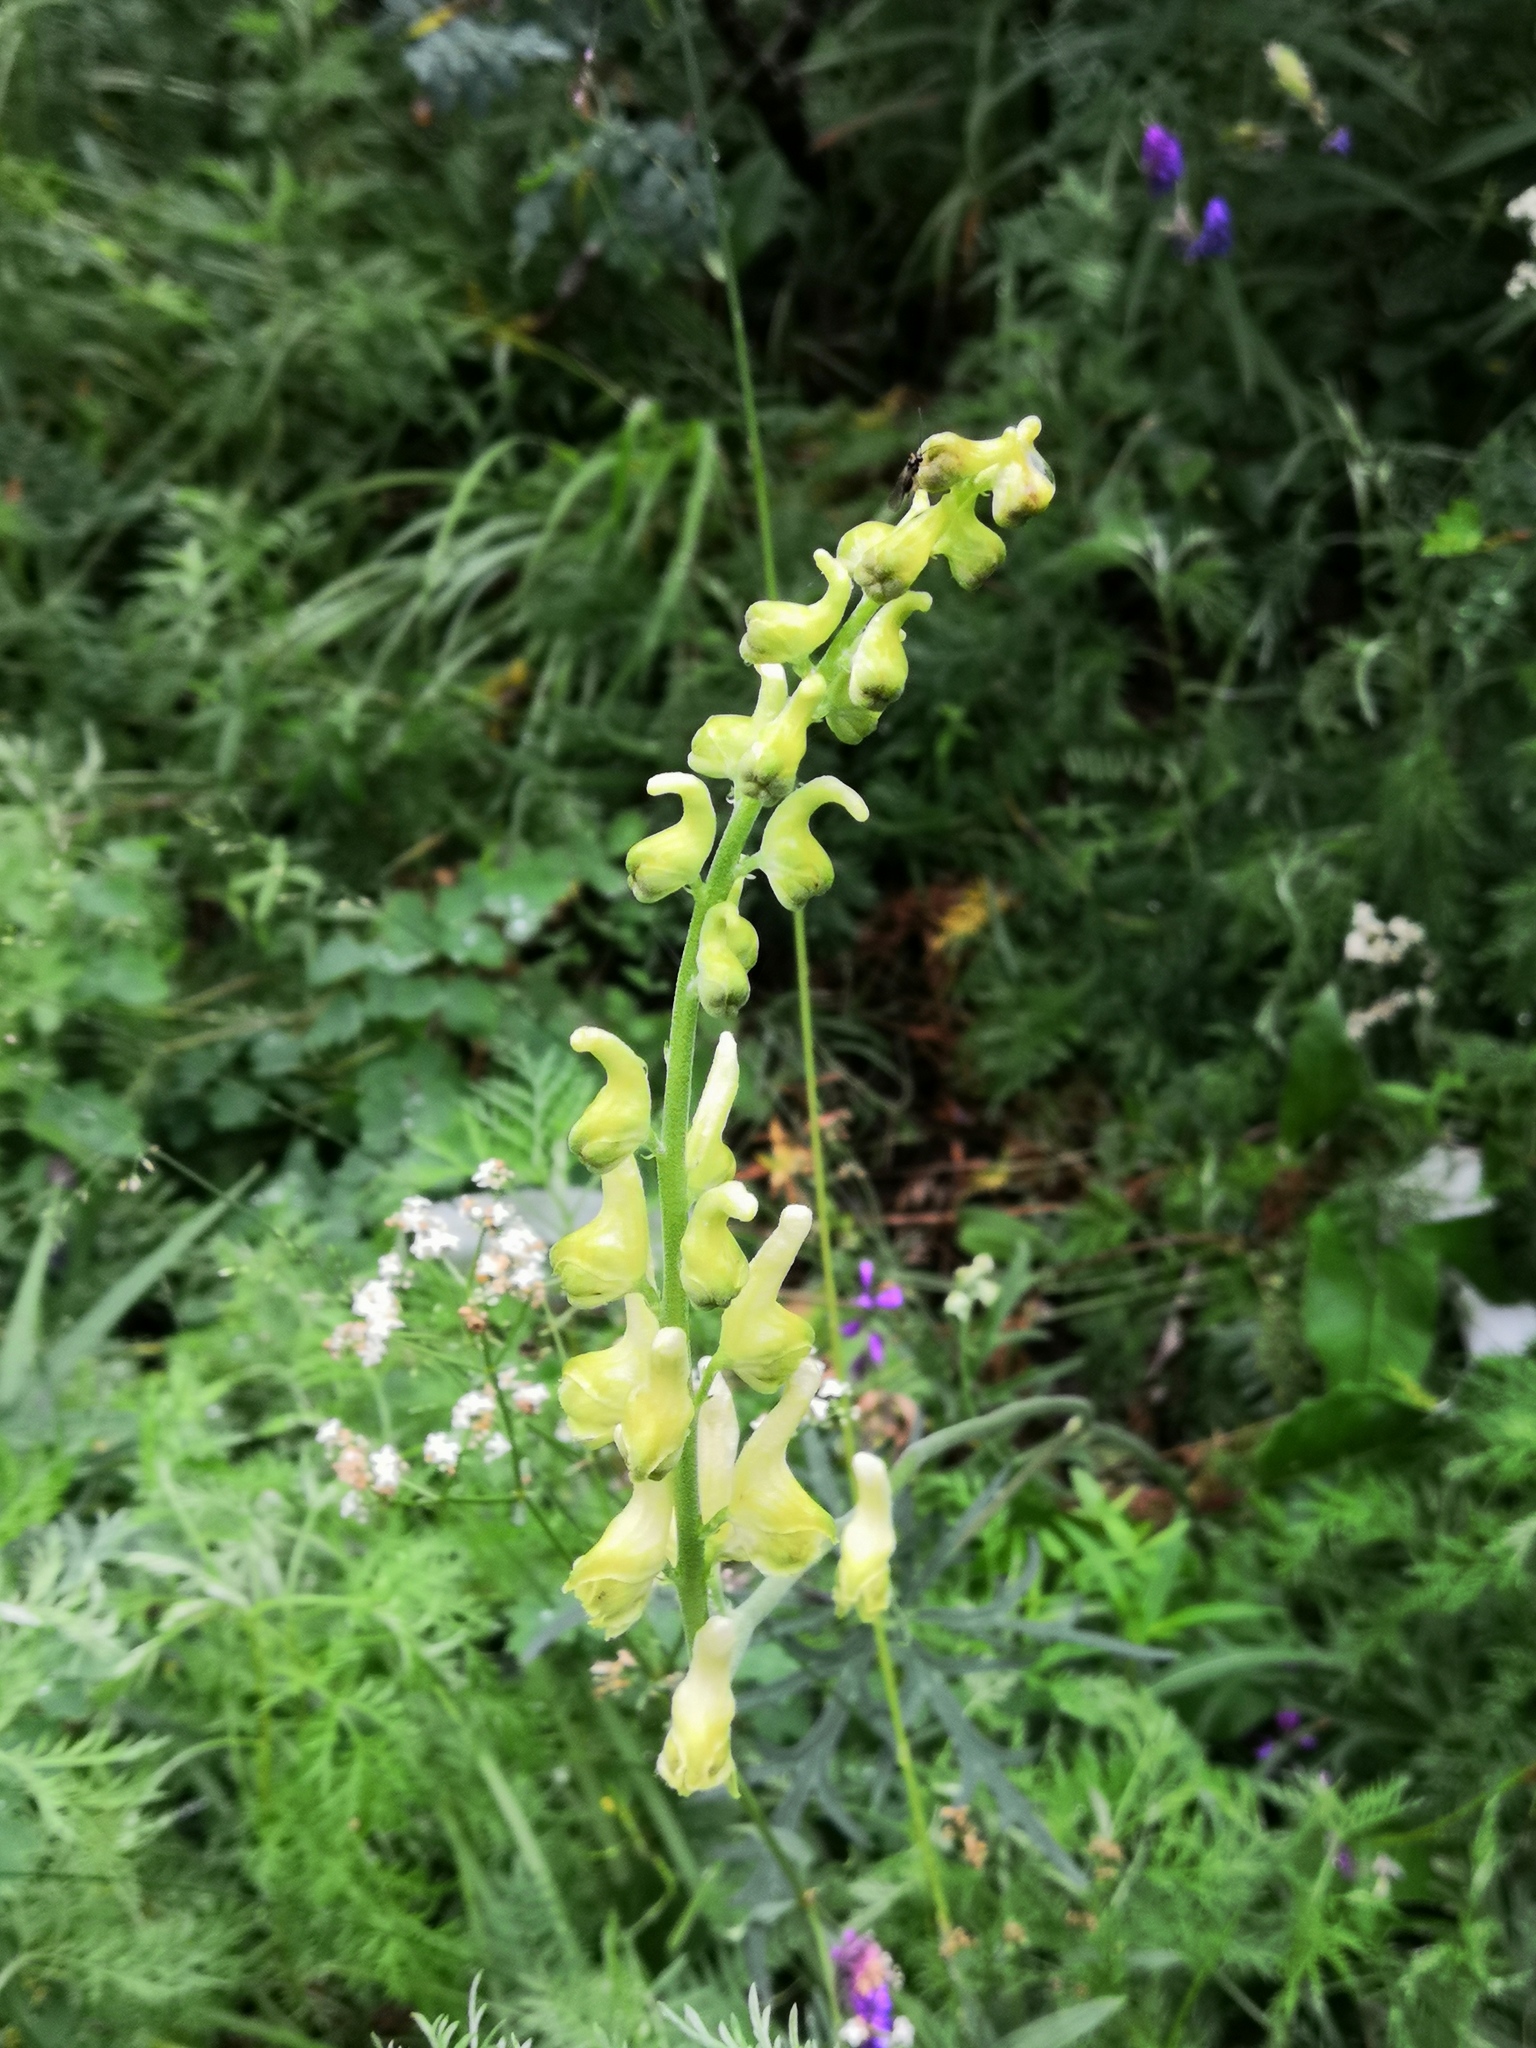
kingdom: Plantae
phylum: Tracheophyta
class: Magnoliopsida
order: Ranunculales
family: Ranunculaceae
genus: Aconitum
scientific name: Aconitum barbatum
